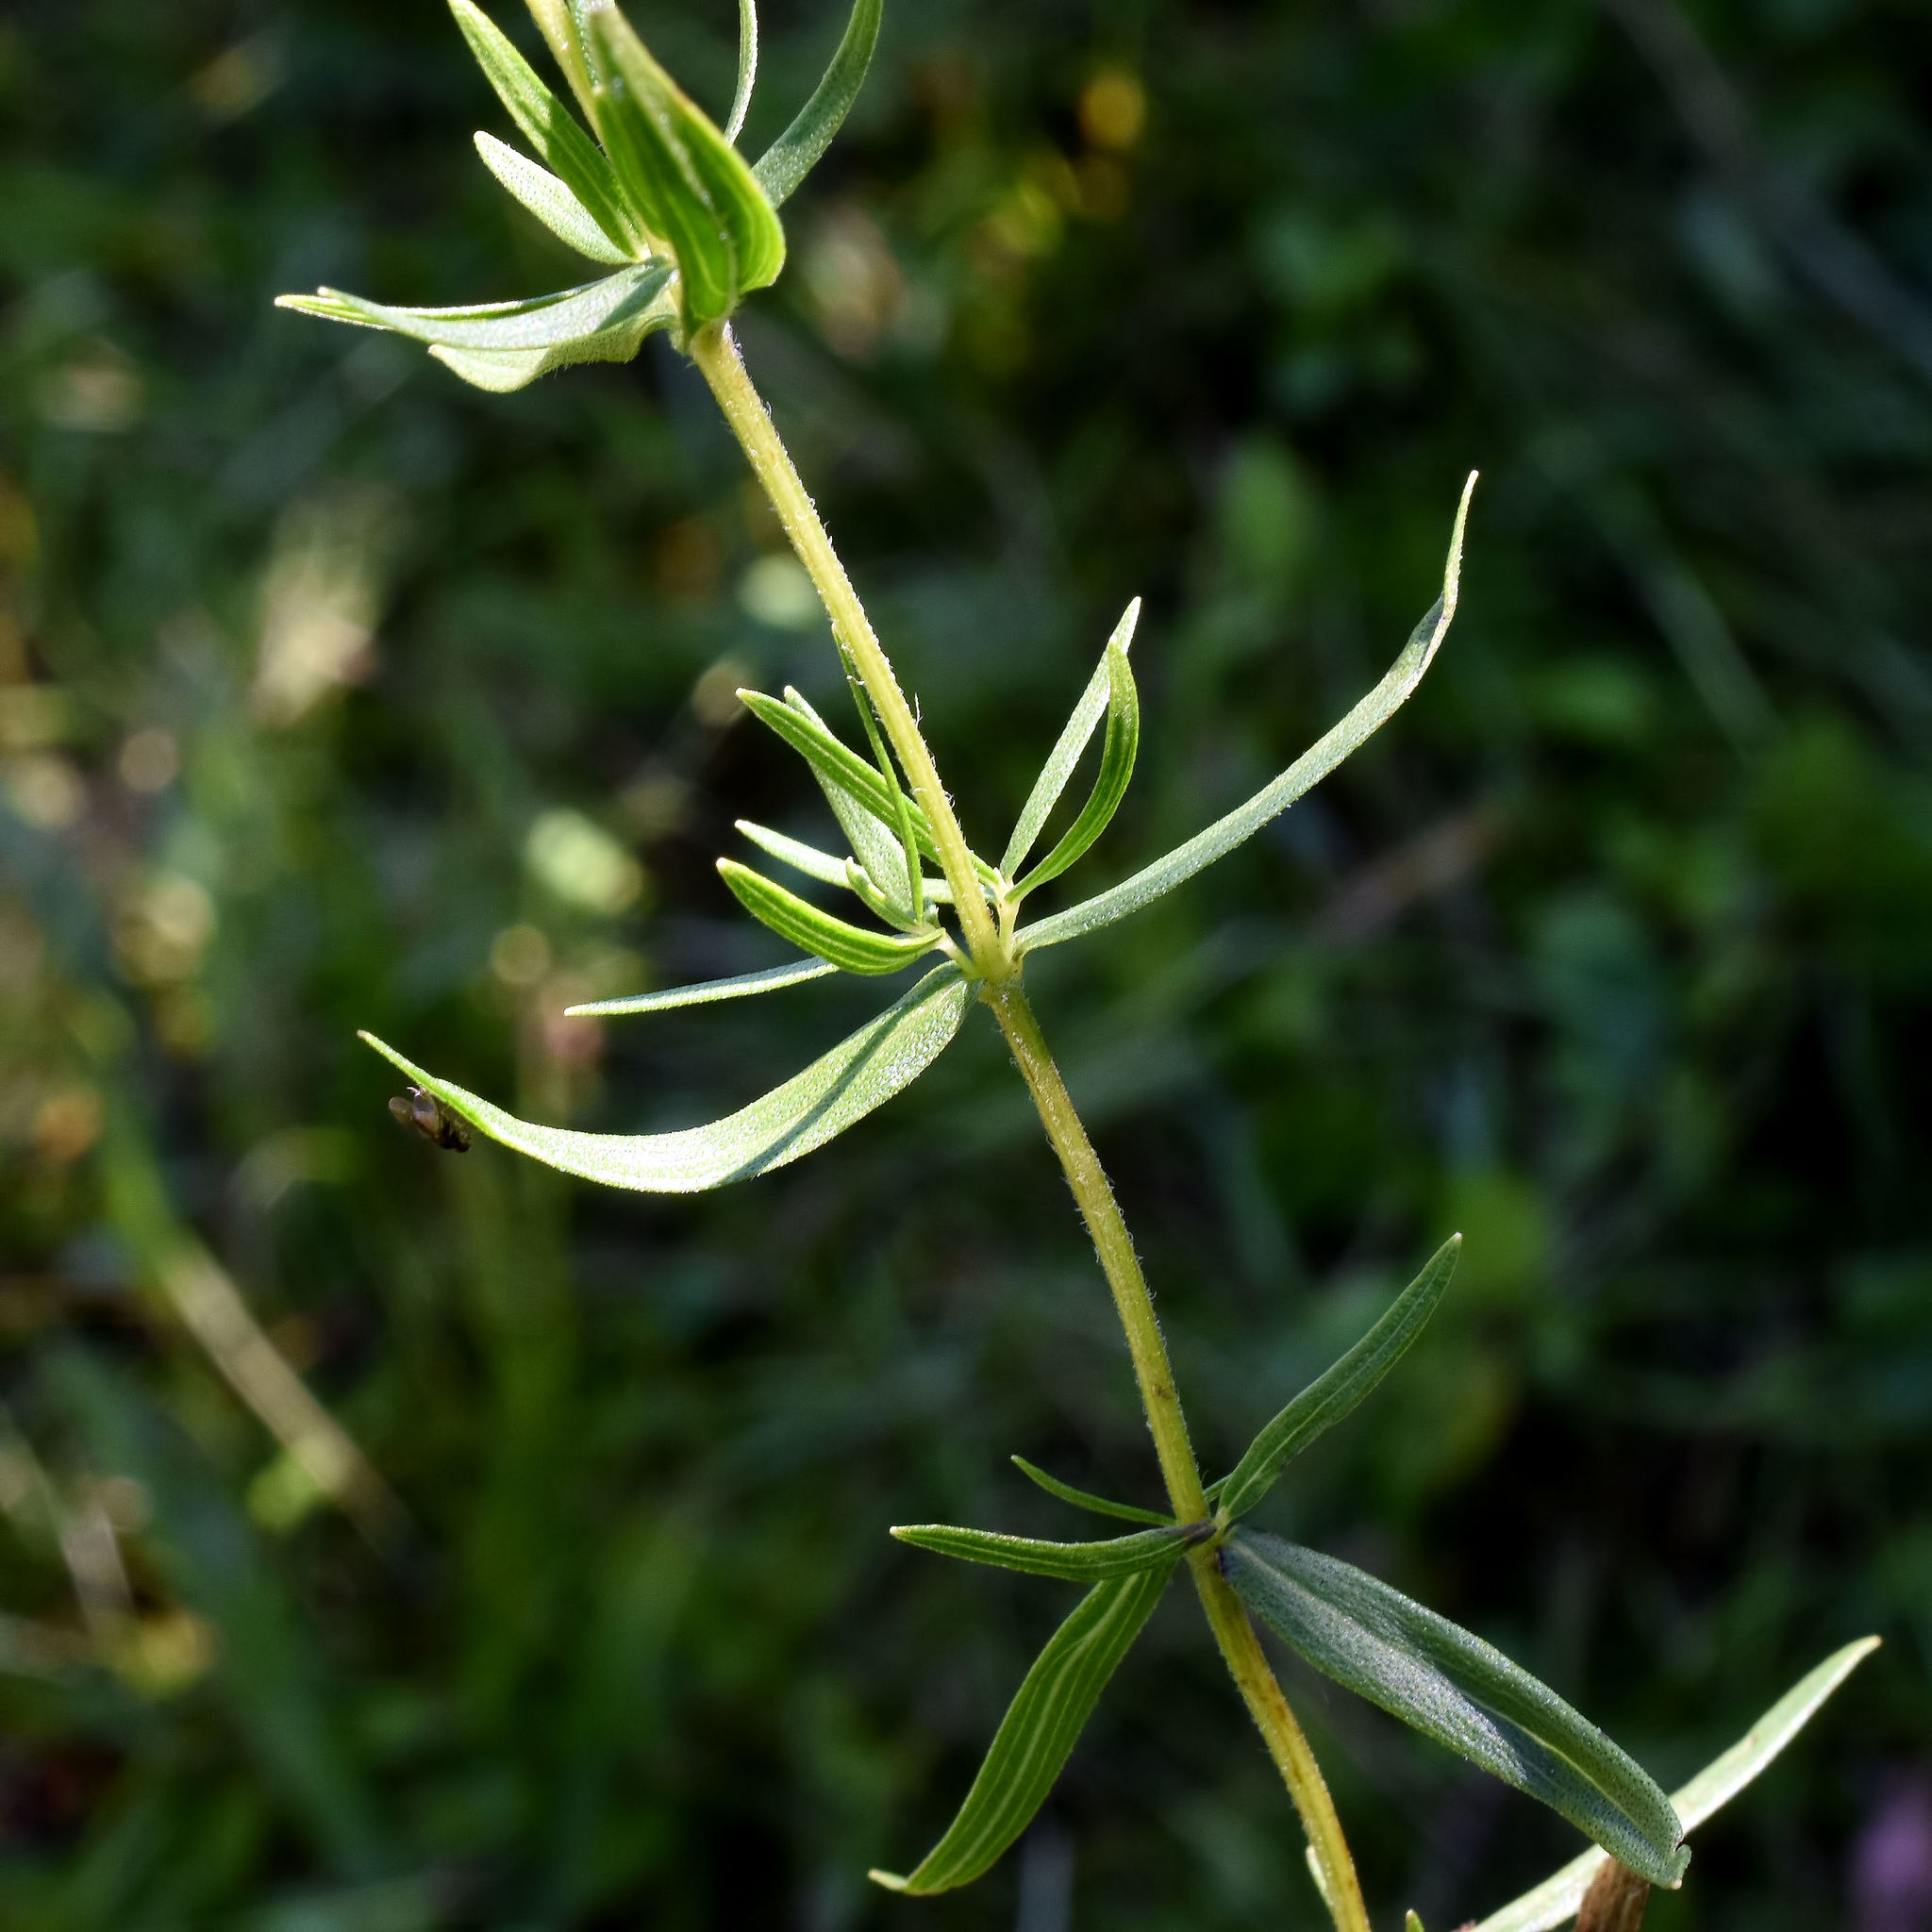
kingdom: Plantae
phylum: Tracheophyta
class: Magnoliopsida
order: Lamiales
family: Lamiaceae
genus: Pycnanthemum
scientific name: Pycnanthemum virginianum
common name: Virginia mountain-mint
